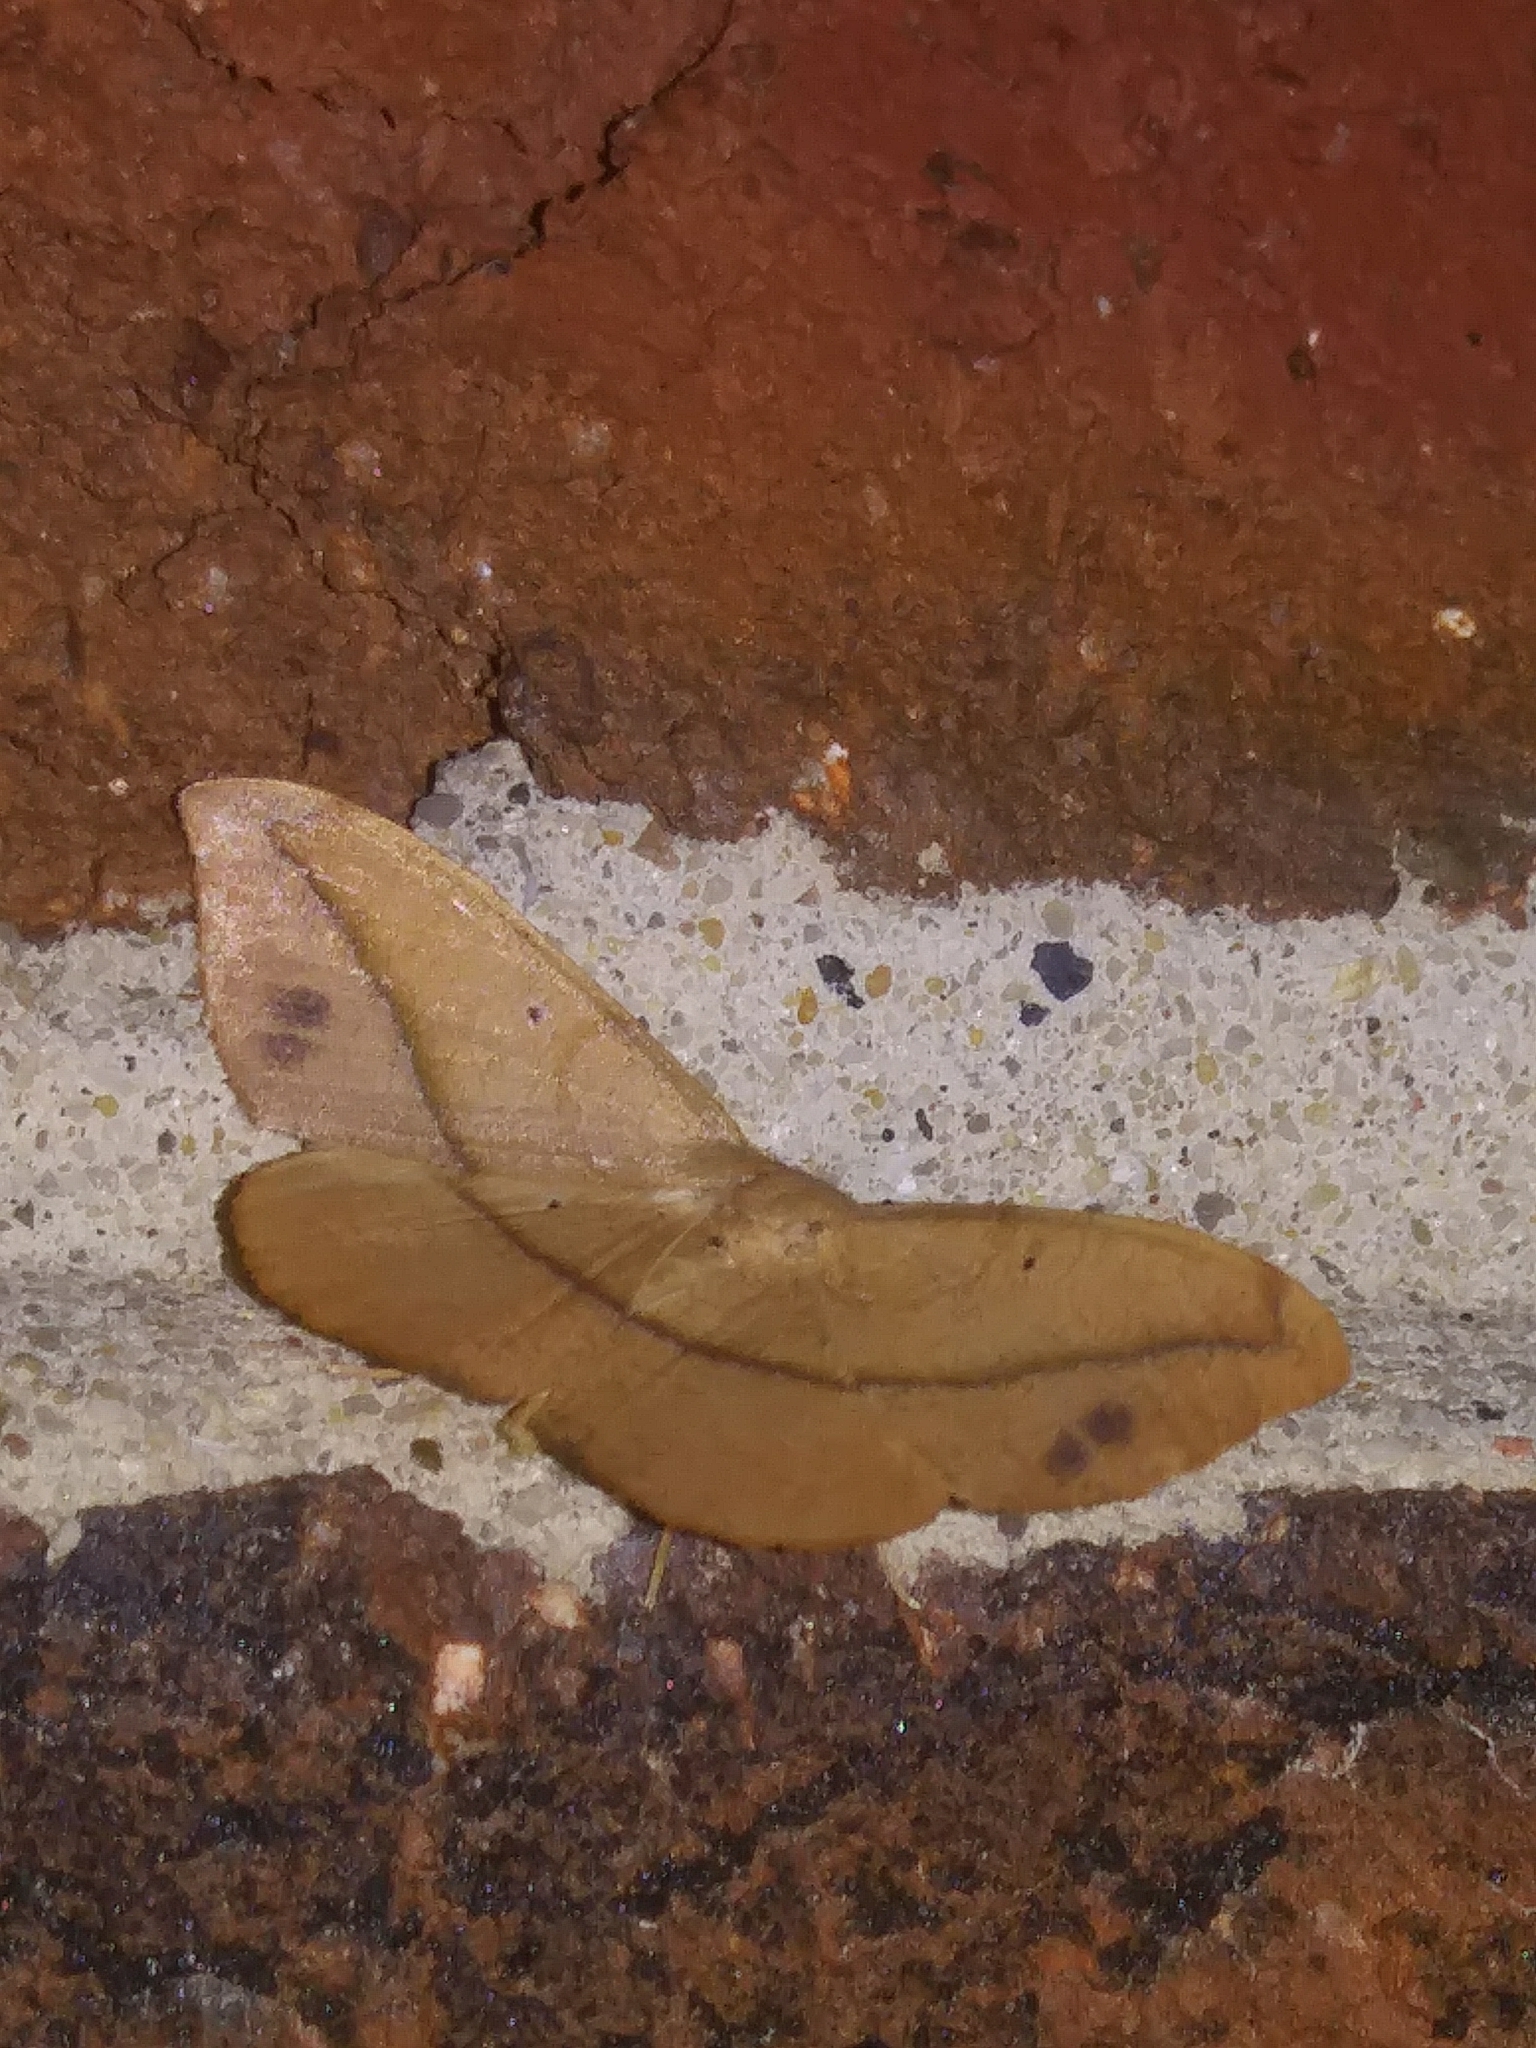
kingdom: Animalia
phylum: Arthropoda
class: Insecta
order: Lepidoptera
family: Geometridae
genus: Patalene
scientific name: Patalene olyzonaria
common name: Juniper geometer moth
